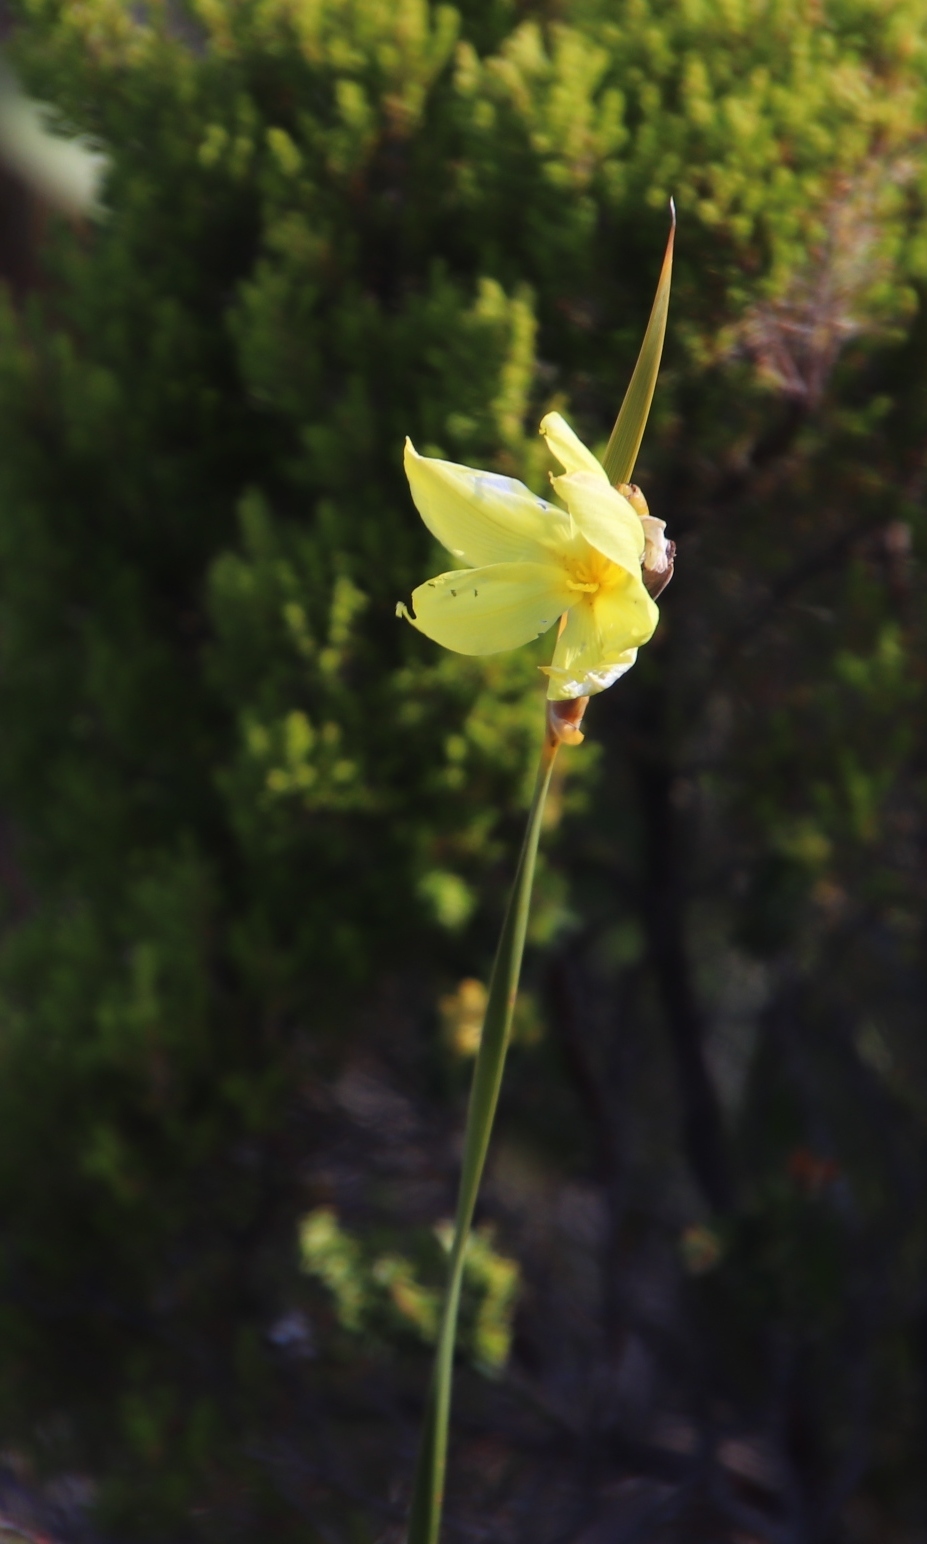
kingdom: Plantae
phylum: Tracheophyta
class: Liliopsida
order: Asparagales
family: Iridaceae
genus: Bobartia
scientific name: Bobartia gladiata
